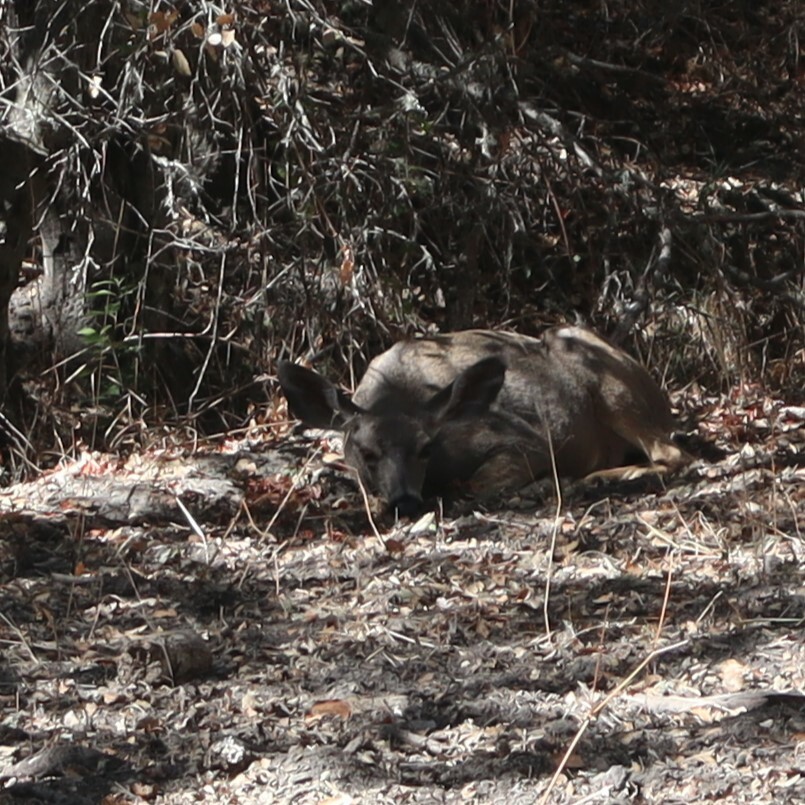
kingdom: Animalia
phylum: Chordata
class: Mammalia
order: Artiodactyla
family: Cervidae
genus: Odocoileus
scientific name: Odocoileus hemionus
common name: Mule deer
